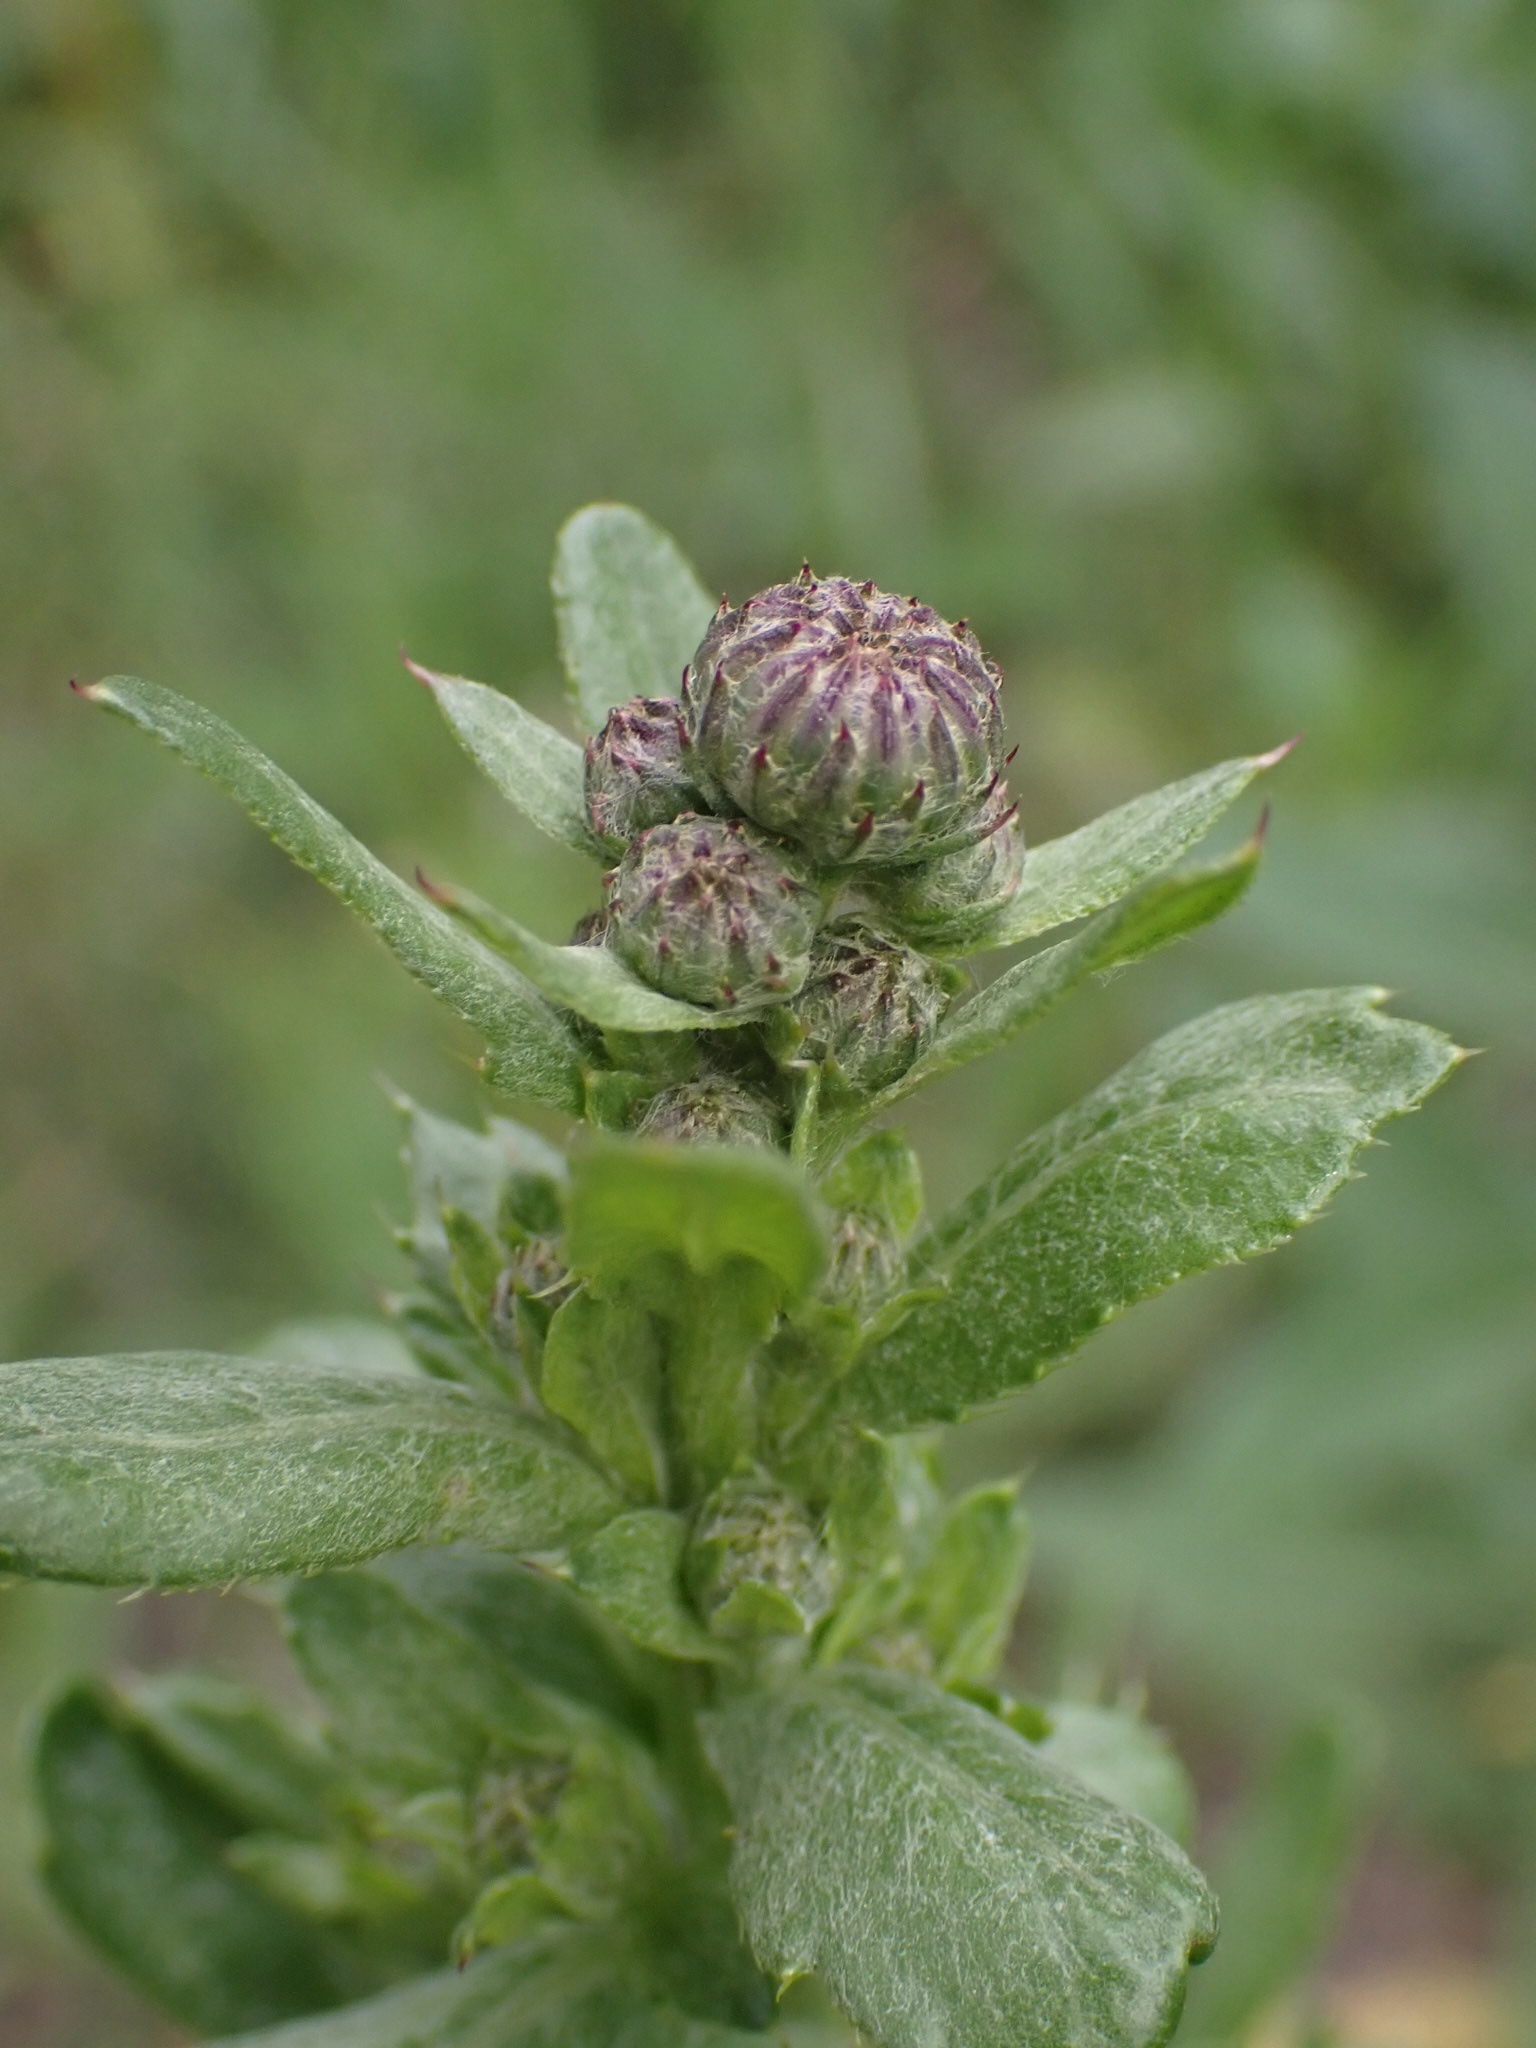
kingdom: Plantae
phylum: Tracheophyta
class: Magnoliopsida
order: Asterales
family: Asteraceae
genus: Cirsium
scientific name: Cirsium arvense
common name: Creeping thistle
